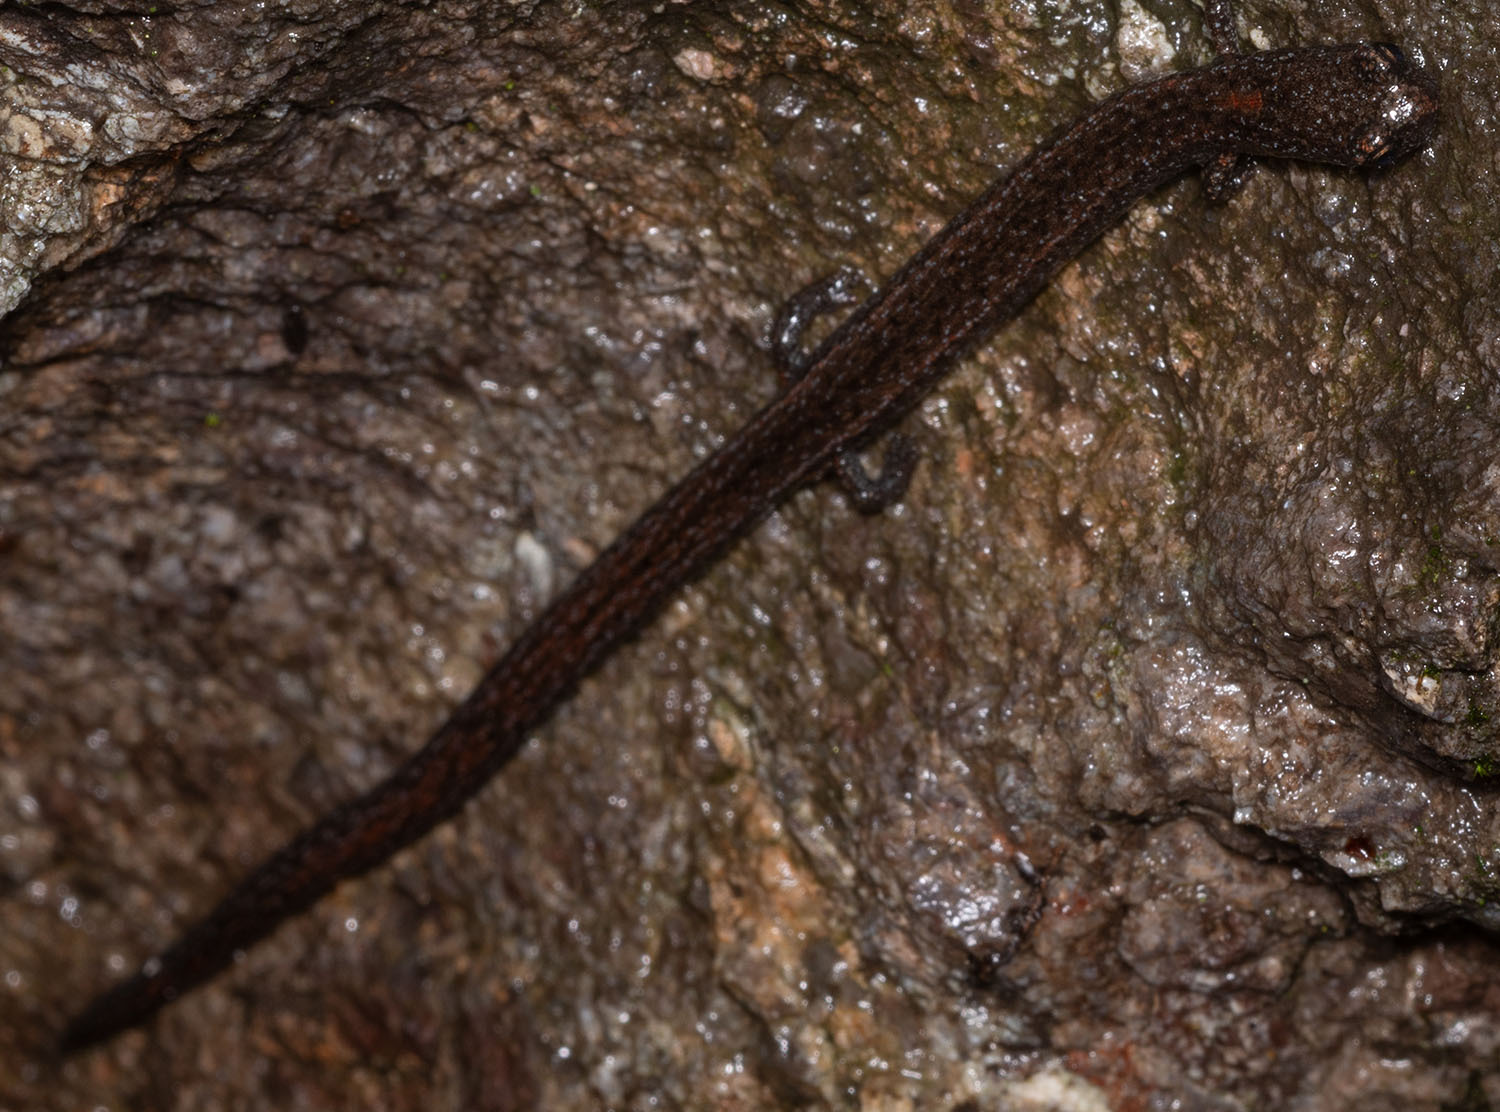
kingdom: Animalia
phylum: Chordata
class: Amphibia
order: Caudata
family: Plethodontidae
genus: Batrachoseps
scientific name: Batrachoseps gavilanensis
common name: Gabilan mountains slender salamander
